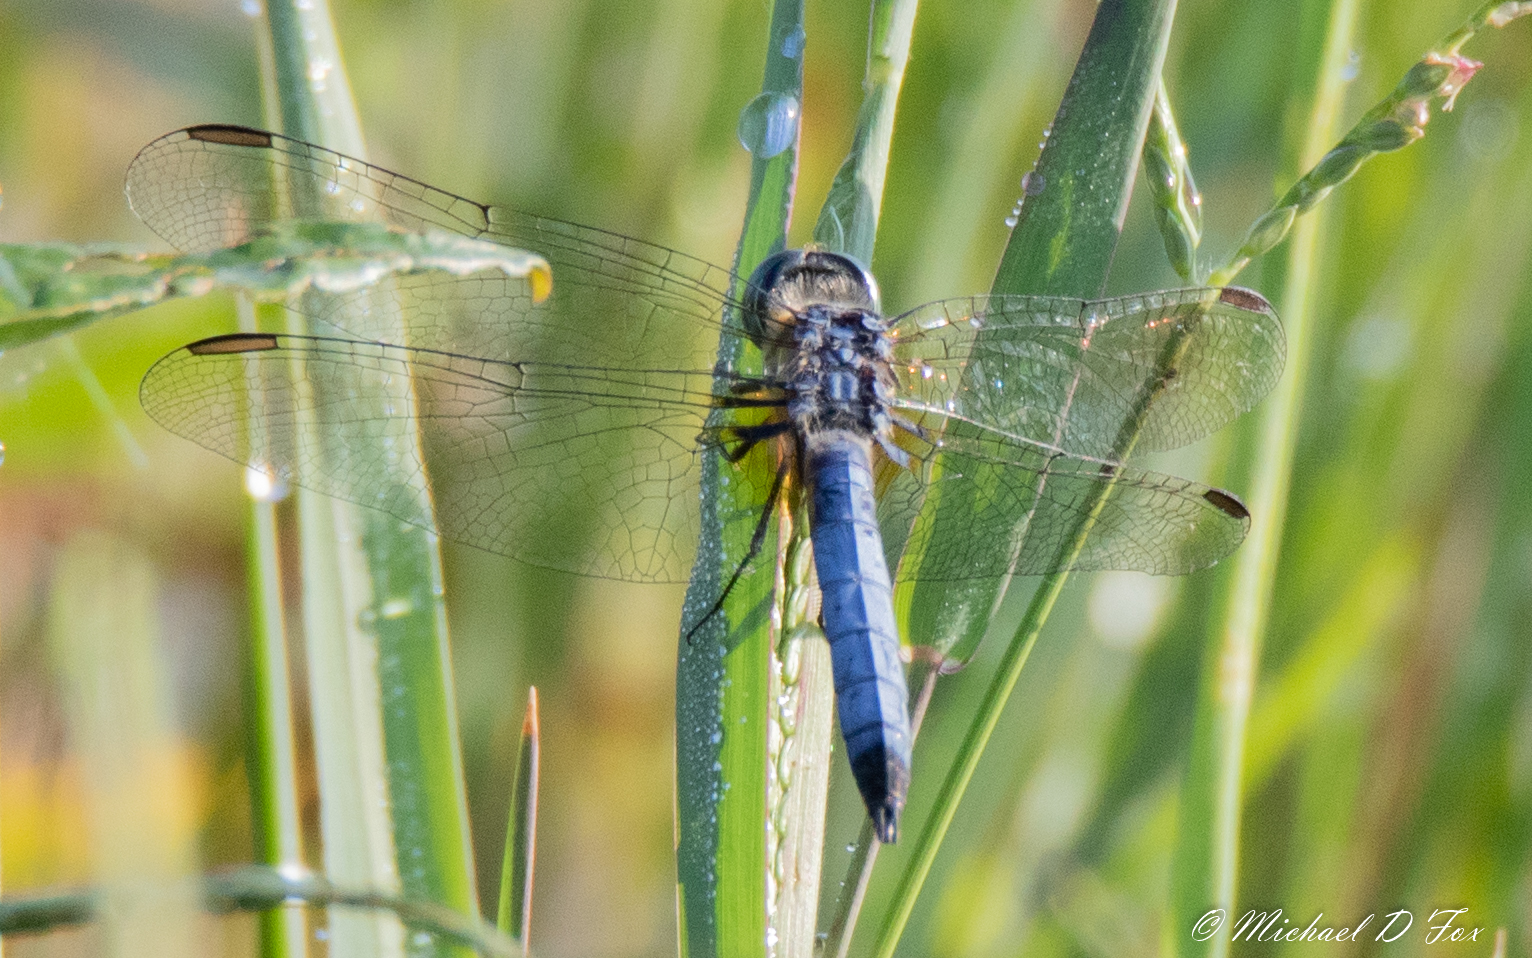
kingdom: Animalia
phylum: Arthropoda
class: Insecta
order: Odonata
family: Libellulidae
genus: Pachydiplax
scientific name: Pachydiplax longipennis
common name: Blue dasher
